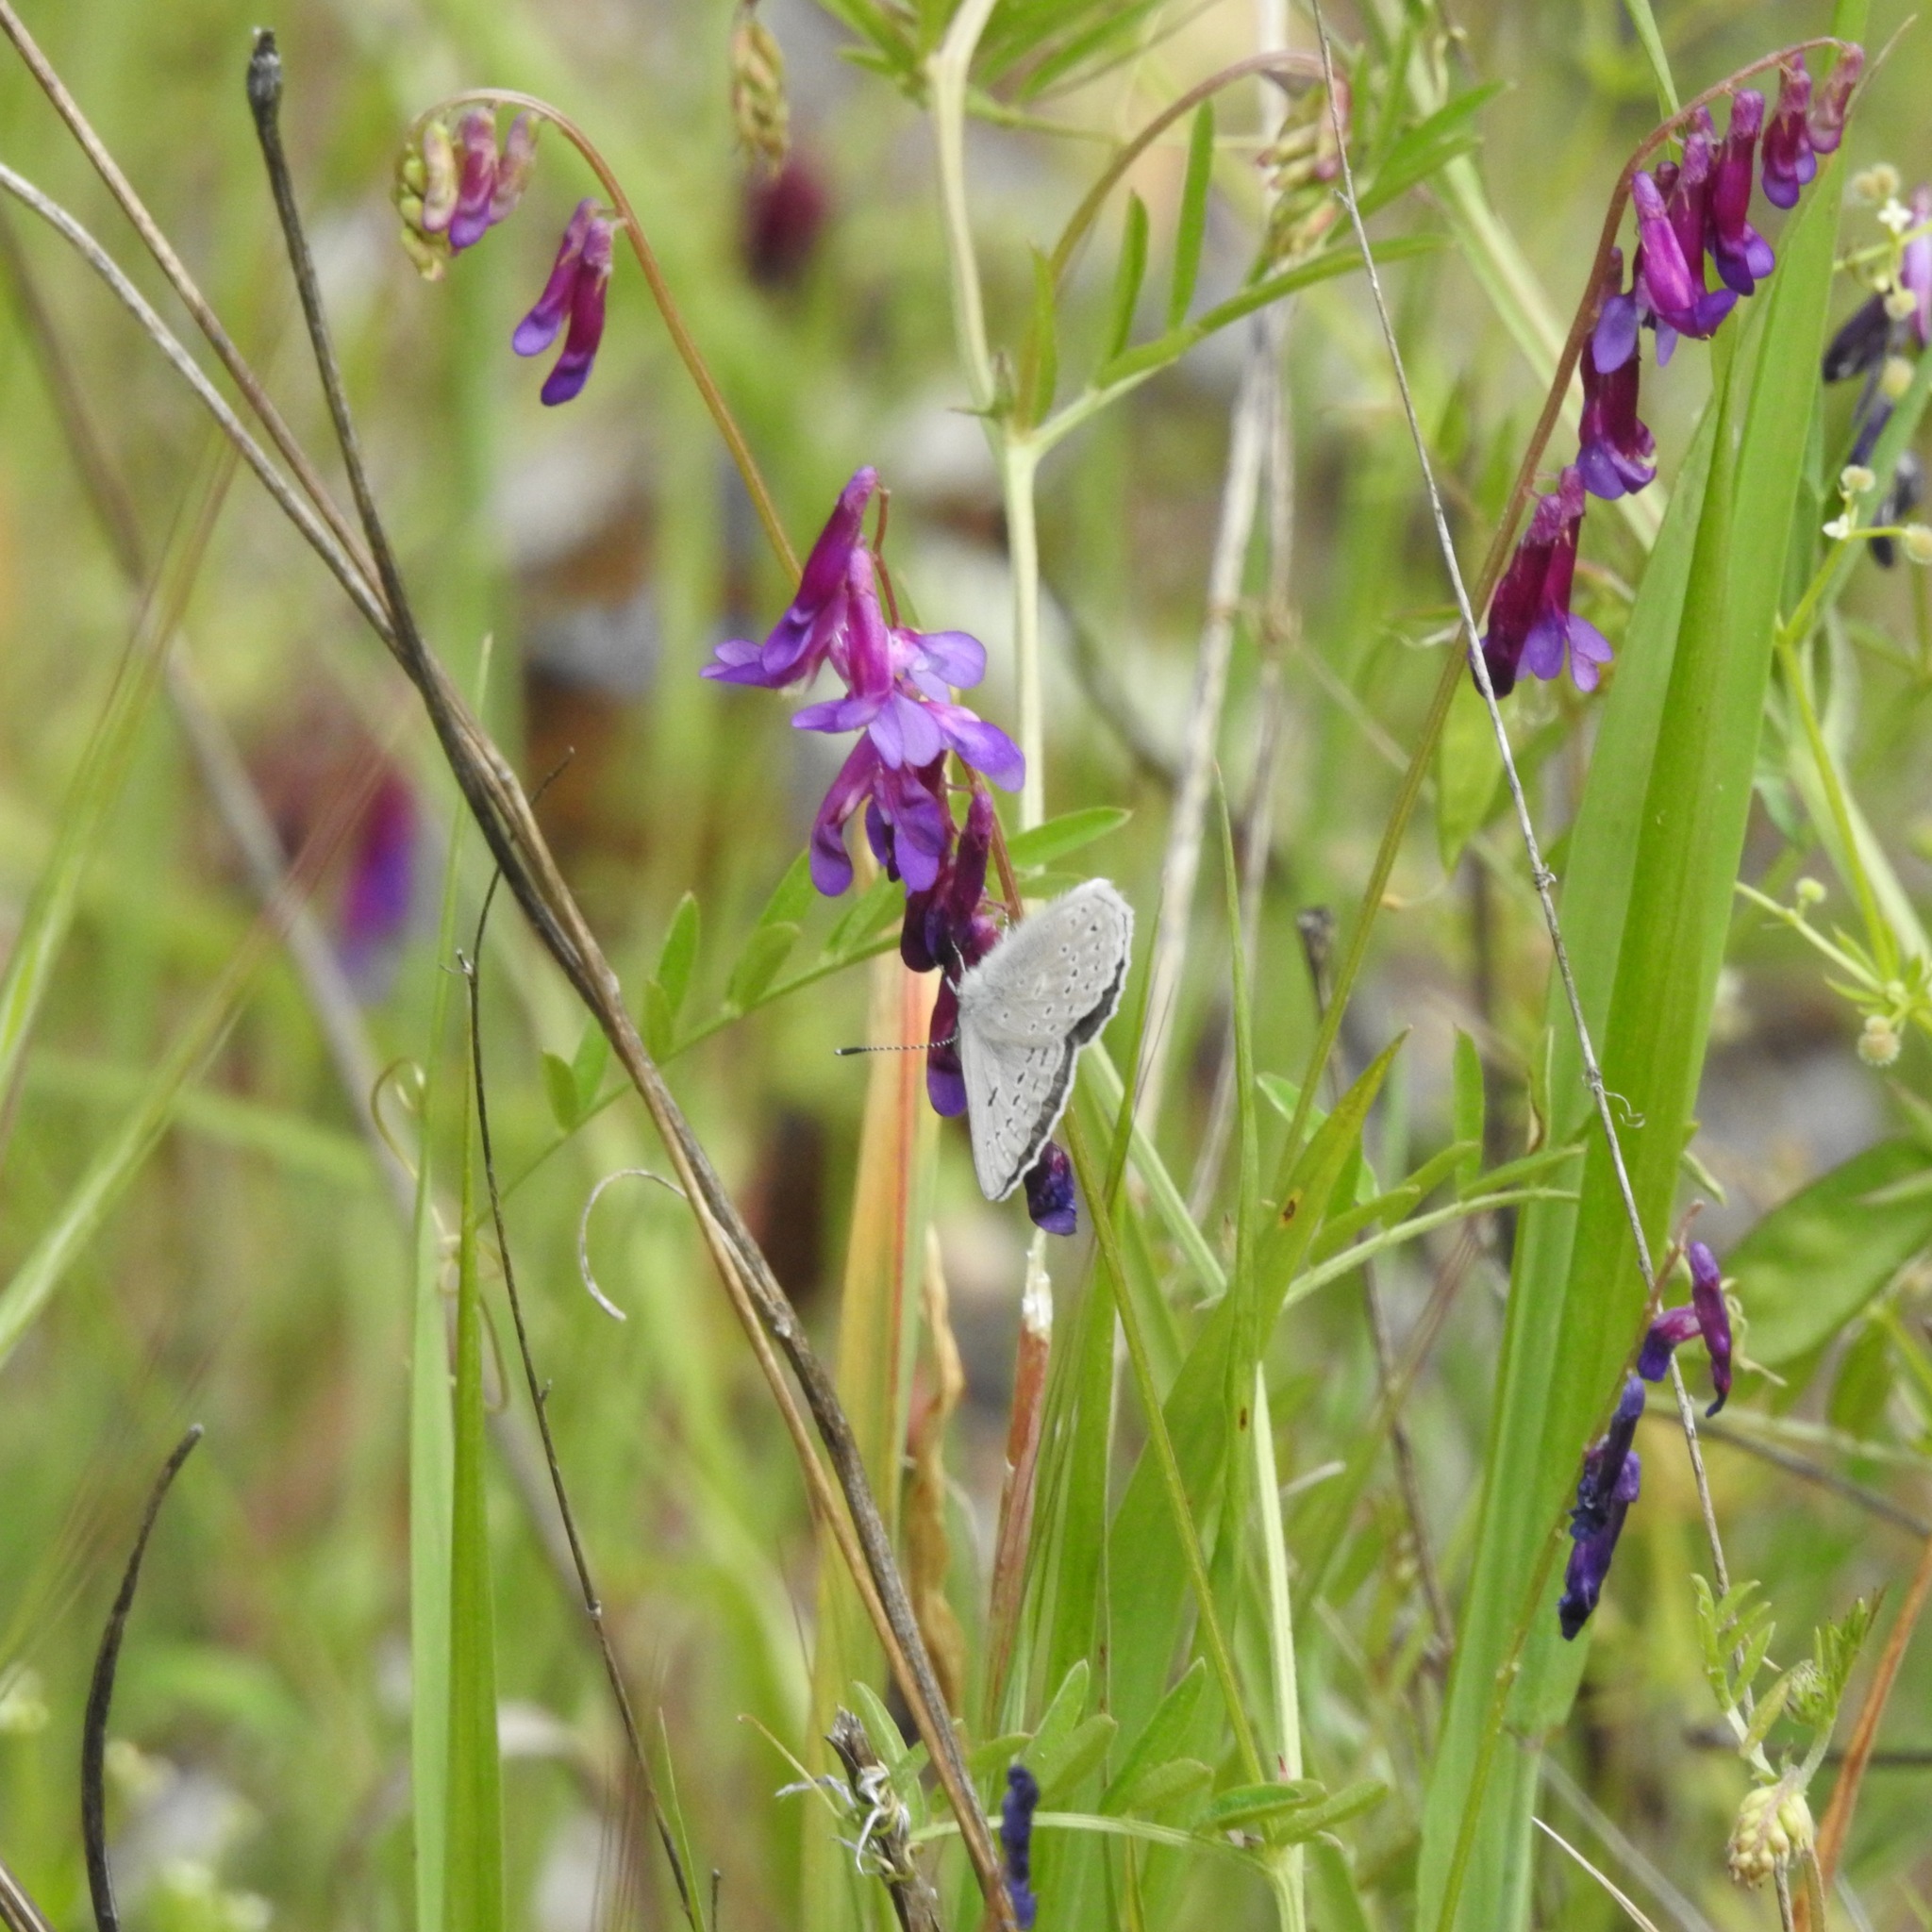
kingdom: Plantae
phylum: Tracheophyta
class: Magnoliopsida
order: Fabales
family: Fabaceae
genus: Vicia
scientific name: Vicia villosa
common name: Fodder vetch
